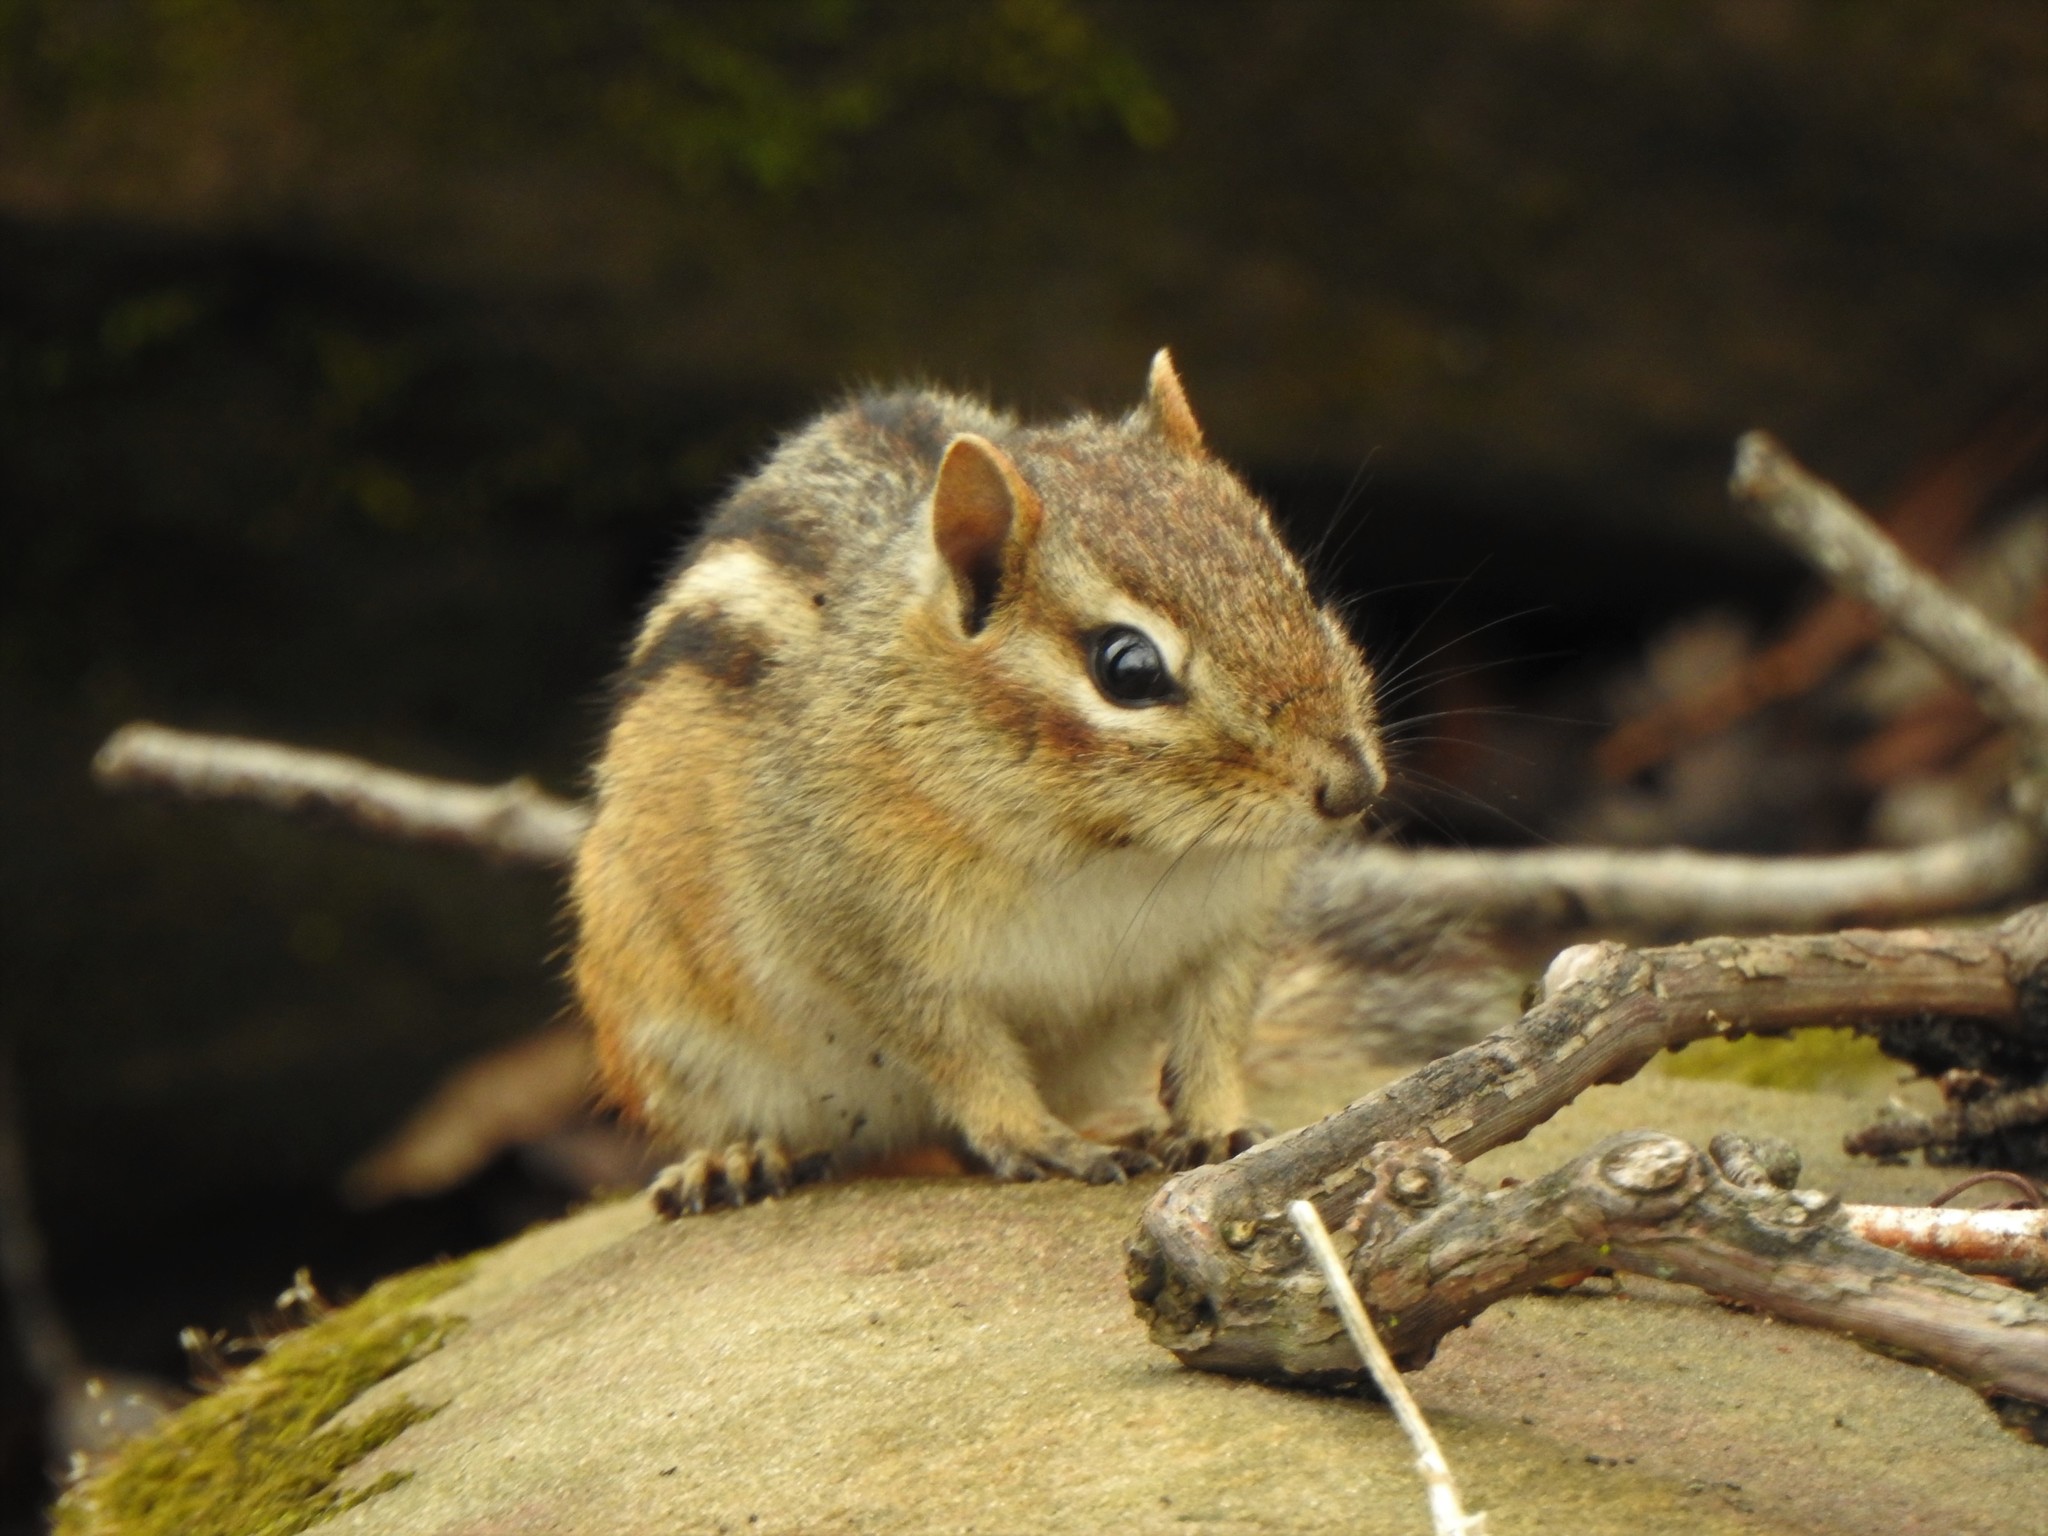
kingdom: Animalia
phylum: Chordata
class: Mammalia
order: Rodentia
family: Sciuridae
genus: Tamias
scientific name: Tamias striatus
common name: Eastern chipmunk
